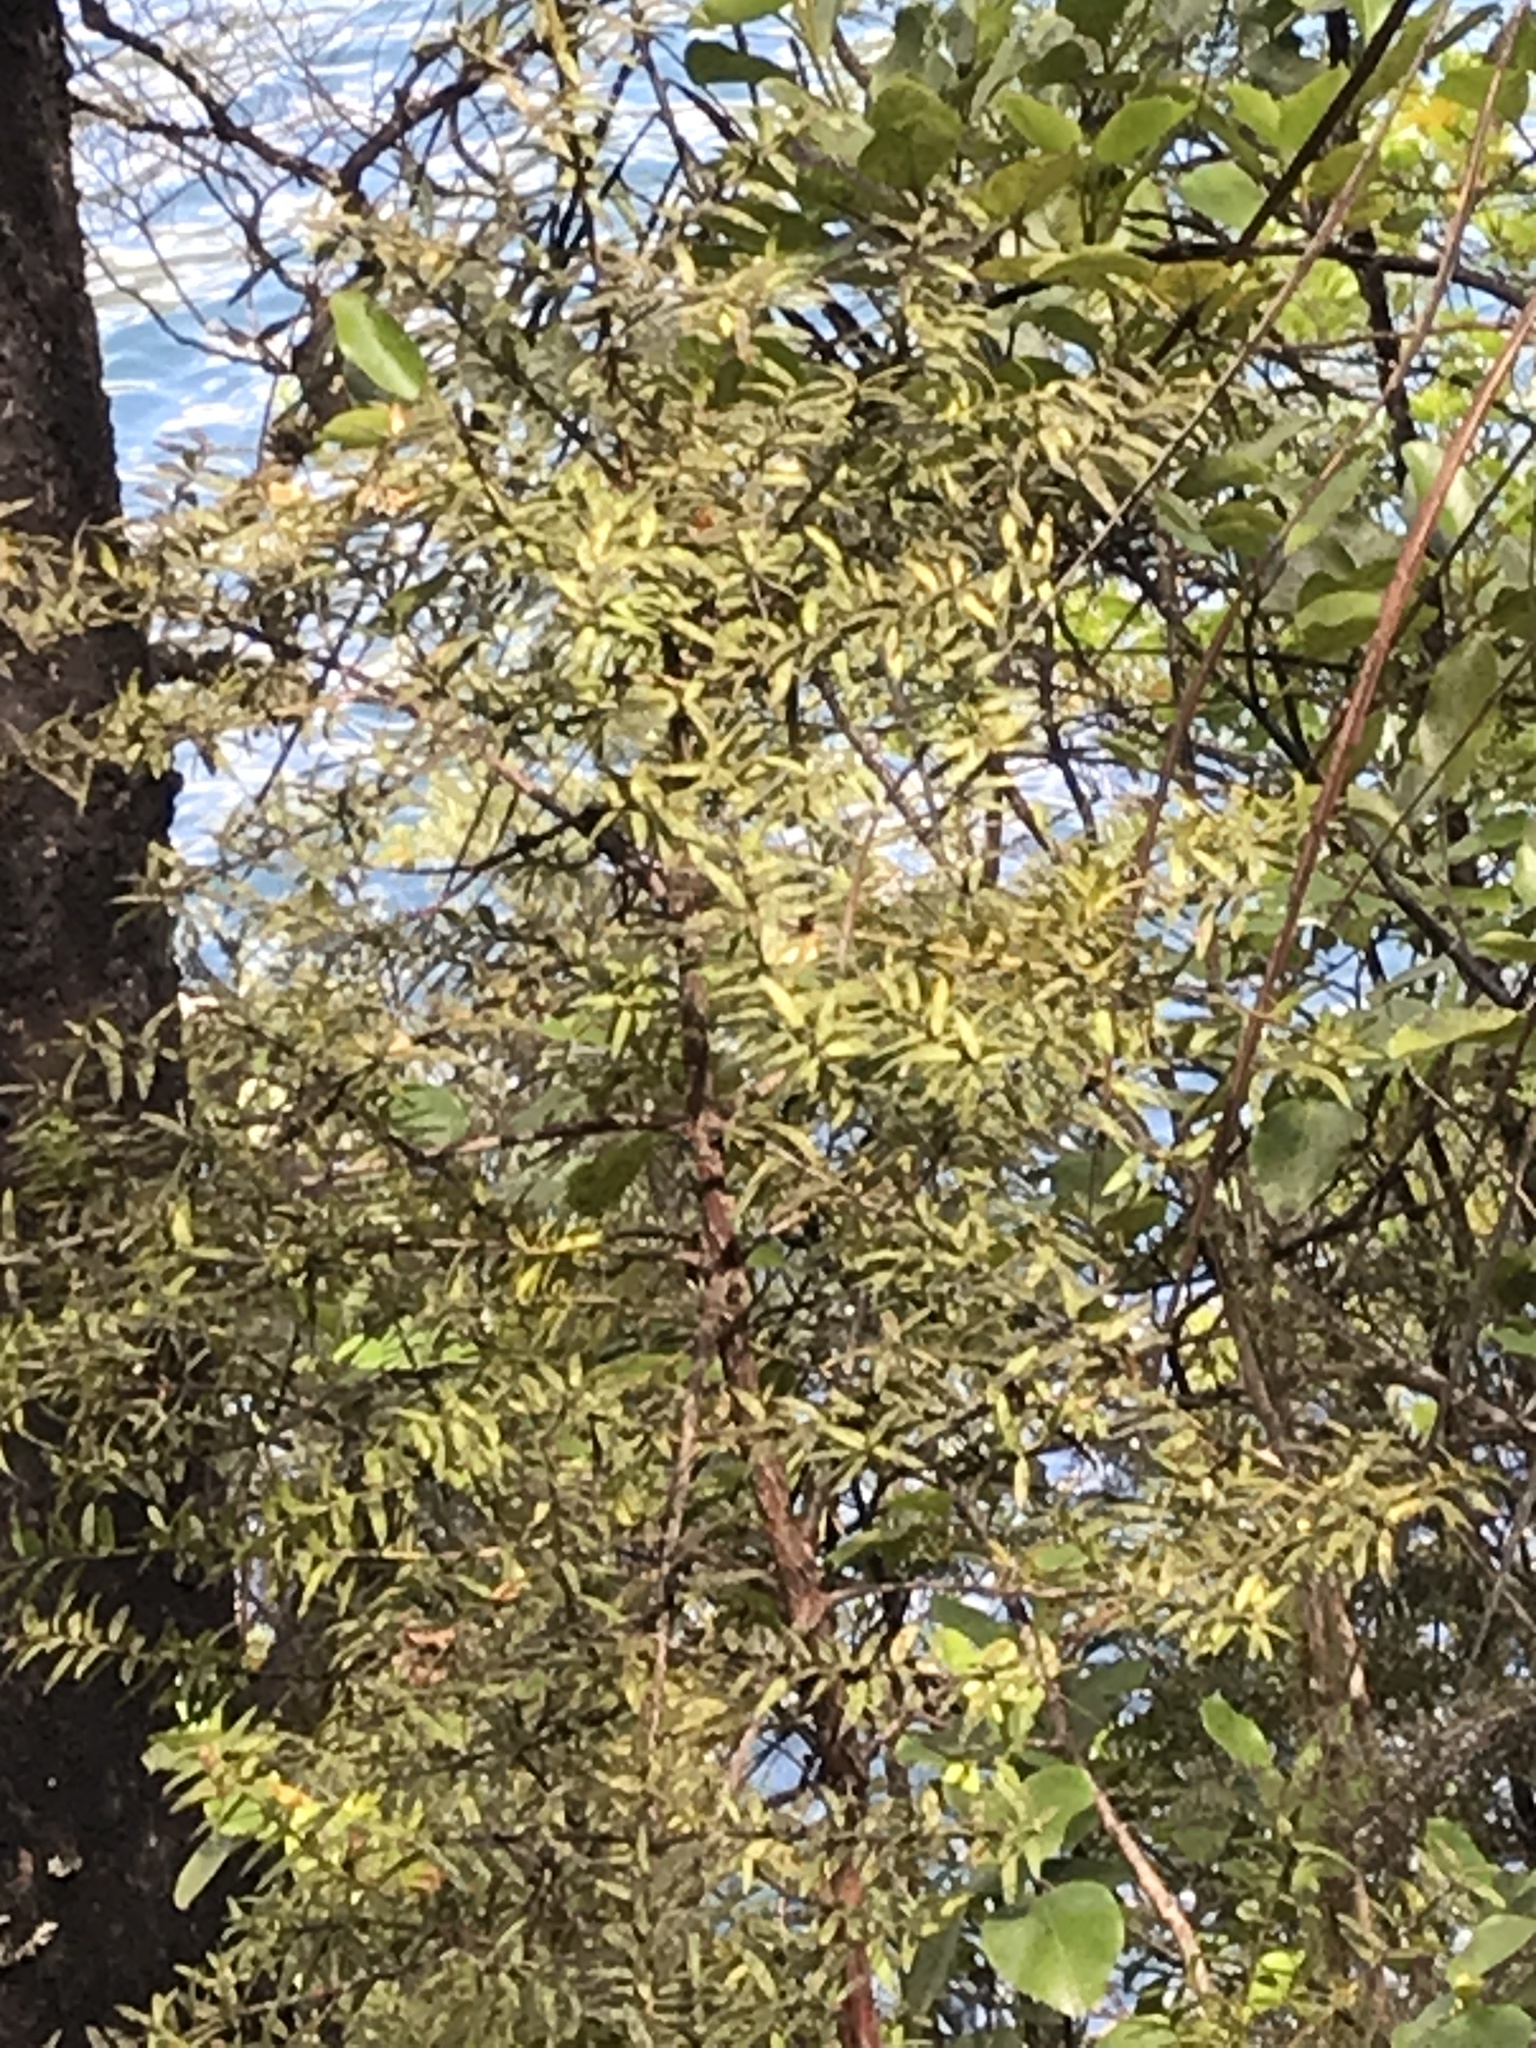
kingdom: Plantae
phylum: Tracheophyta
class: Pinopsida
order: Pinales
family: Podocarpaceae
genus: Podocarpus
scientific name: Podocarpus laetus
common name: Hall's totara
